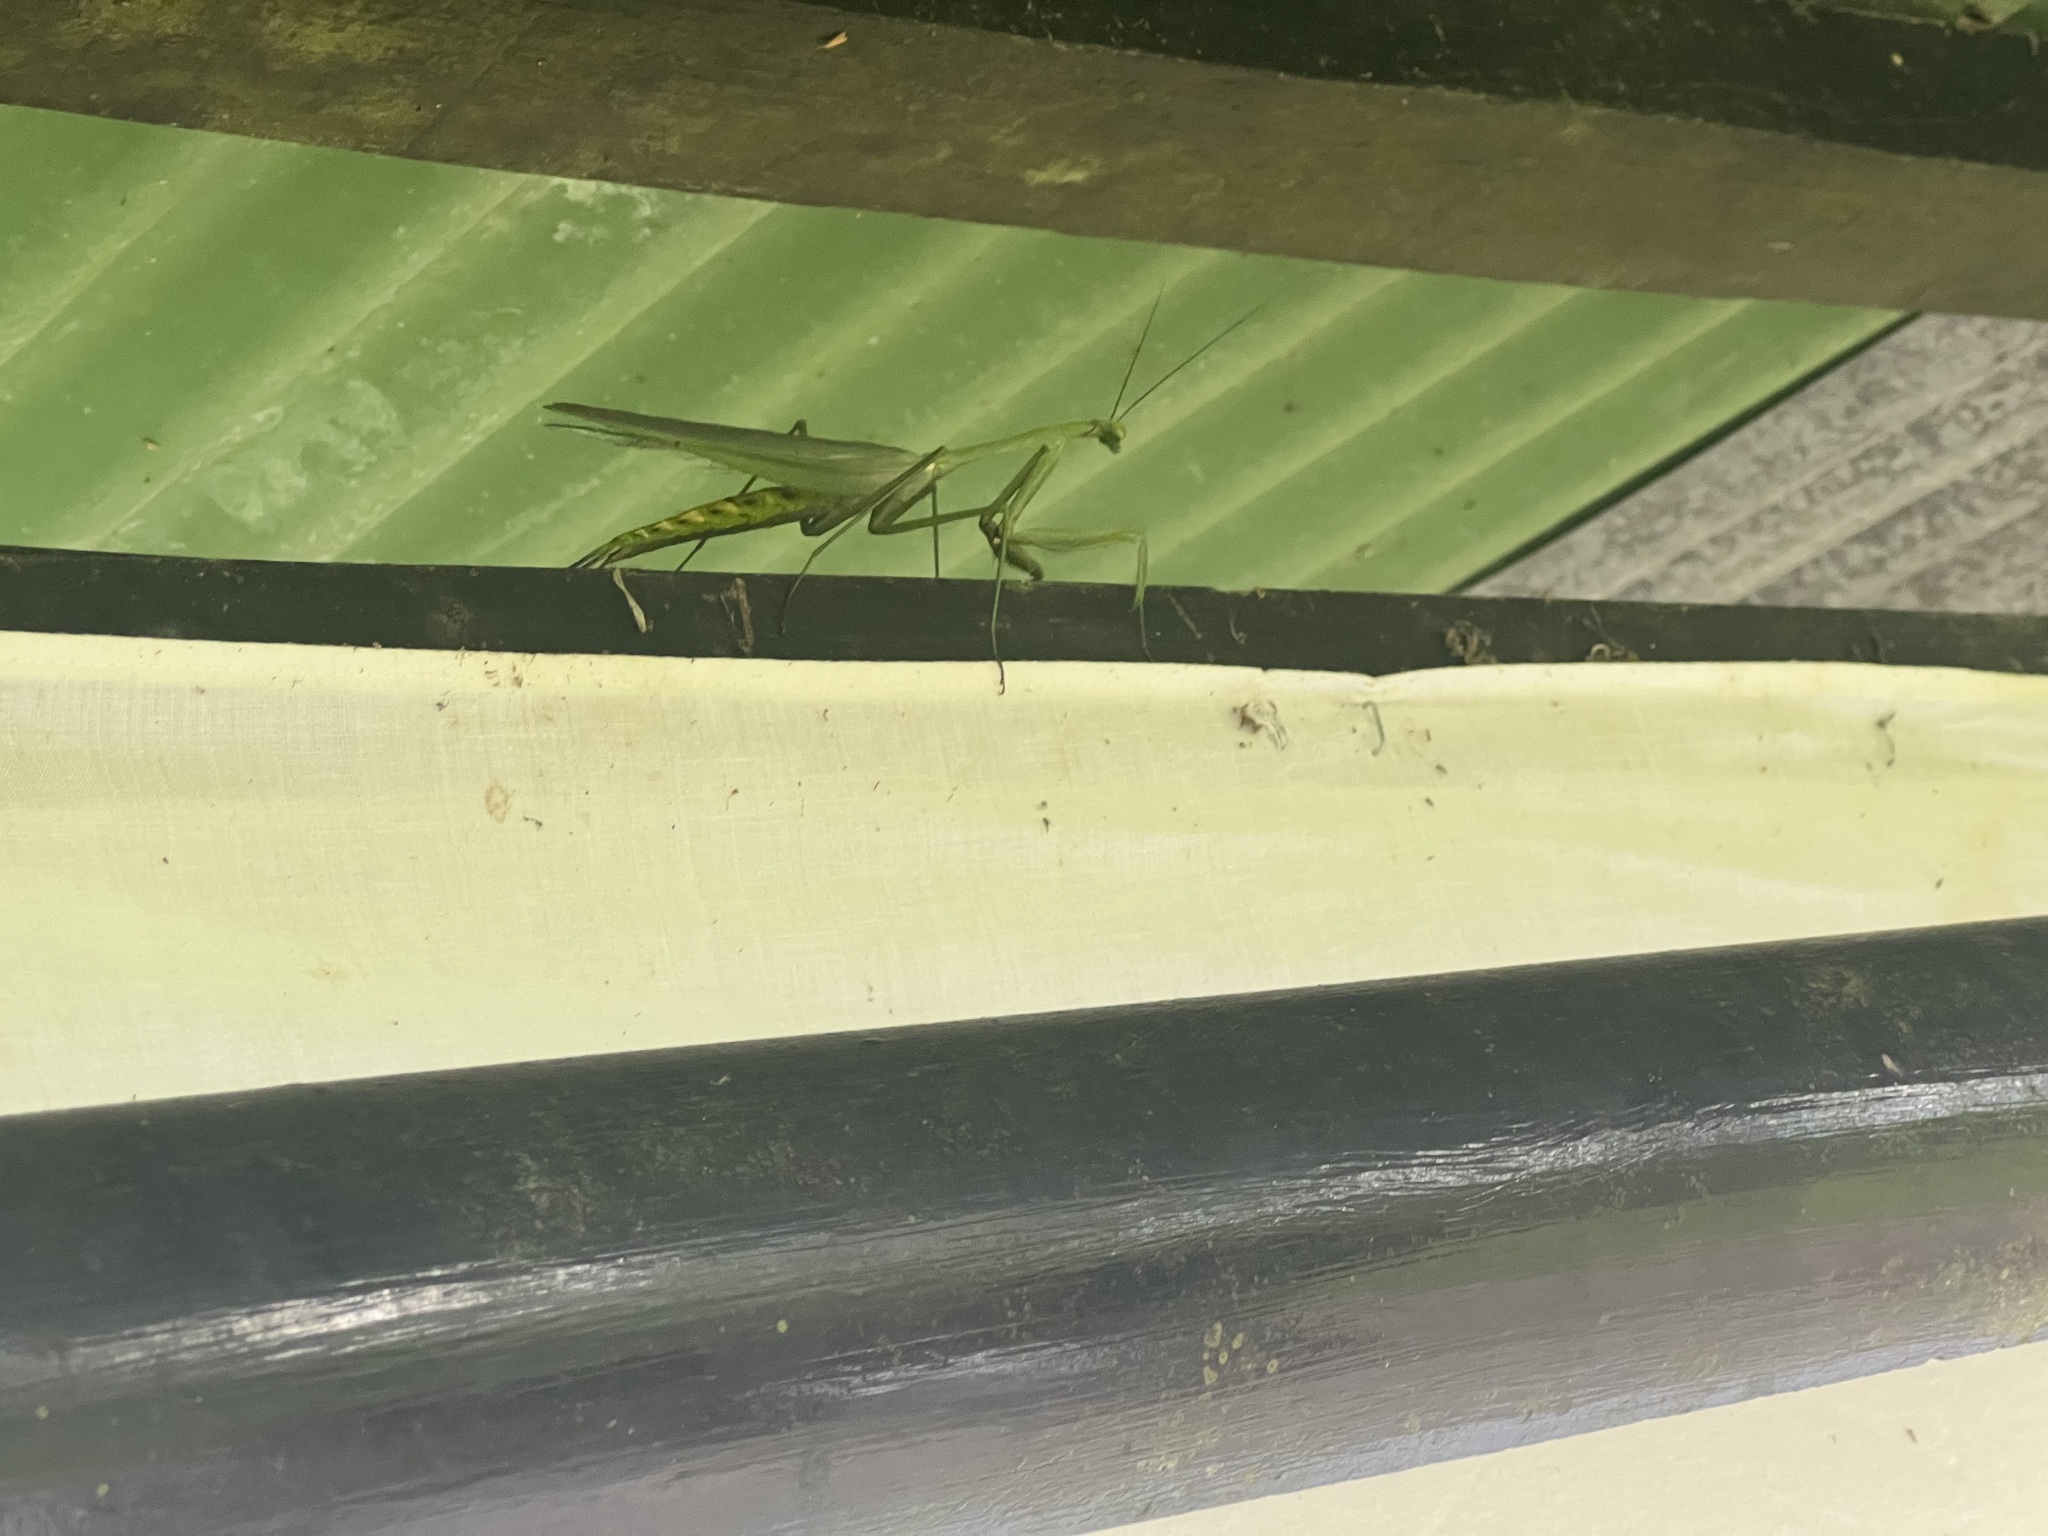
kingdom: Animalia
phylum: Arthropoda
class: Insecta
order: Mantodea
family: Photinaidae
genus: Macromantis
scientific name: Macromantis nicaraguae
